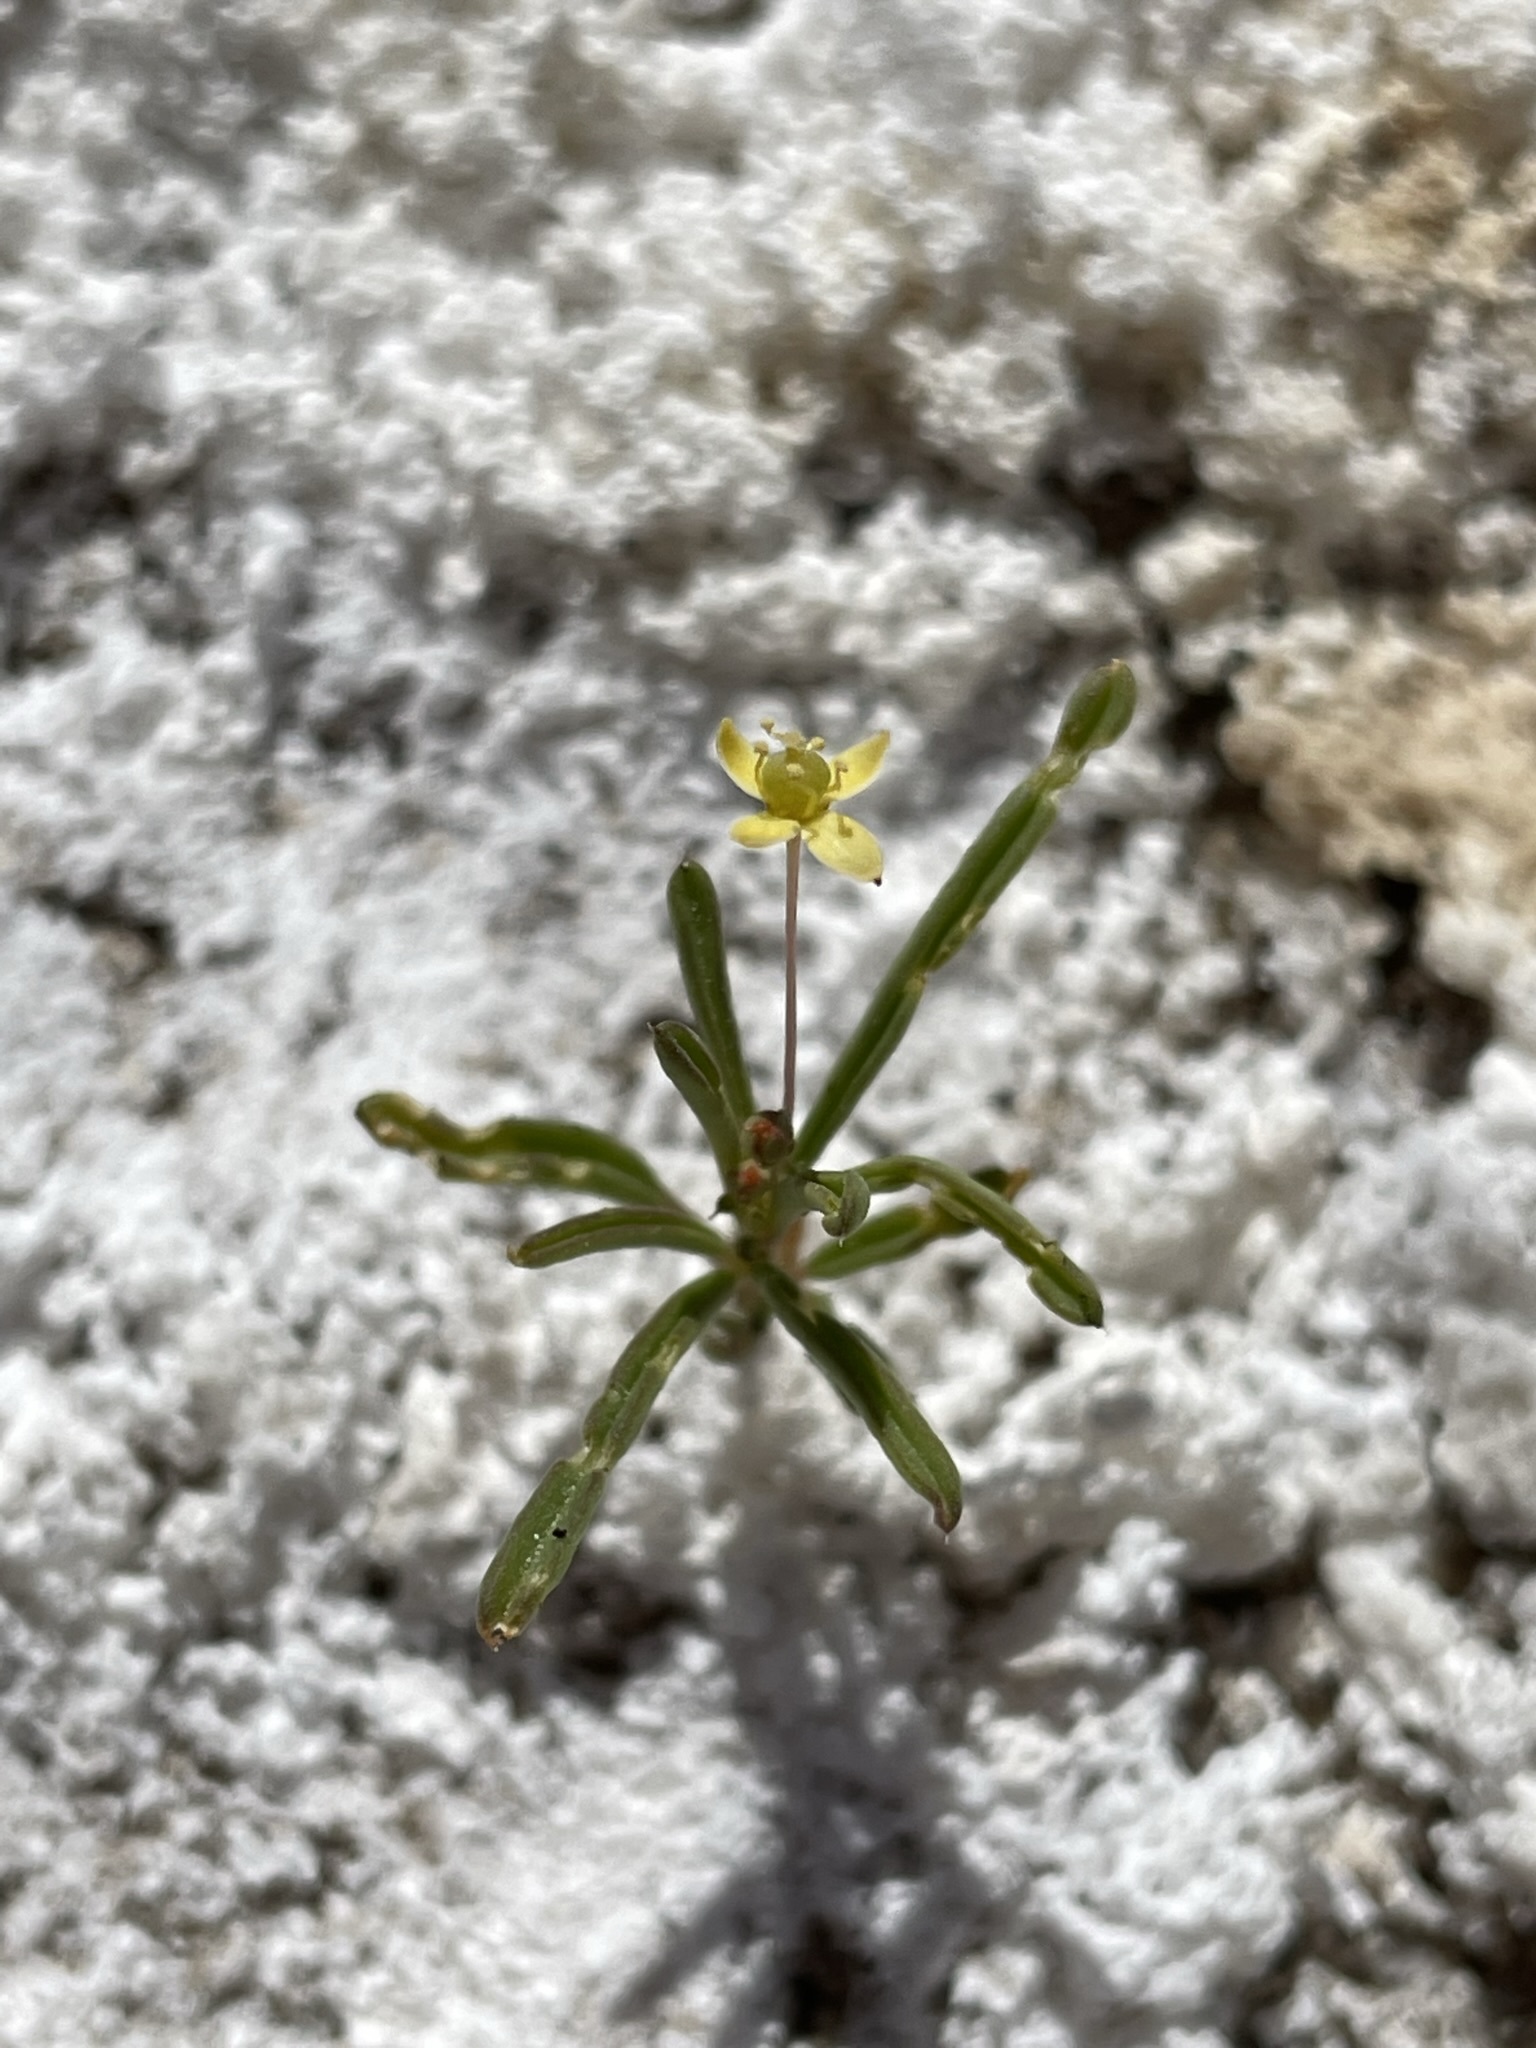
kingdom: Plantae
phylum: Tracheophyta
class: Magnoliopsida
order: Brassicales
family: Cleomaceae
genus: Cleomella
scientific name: Cleomella parviflora
